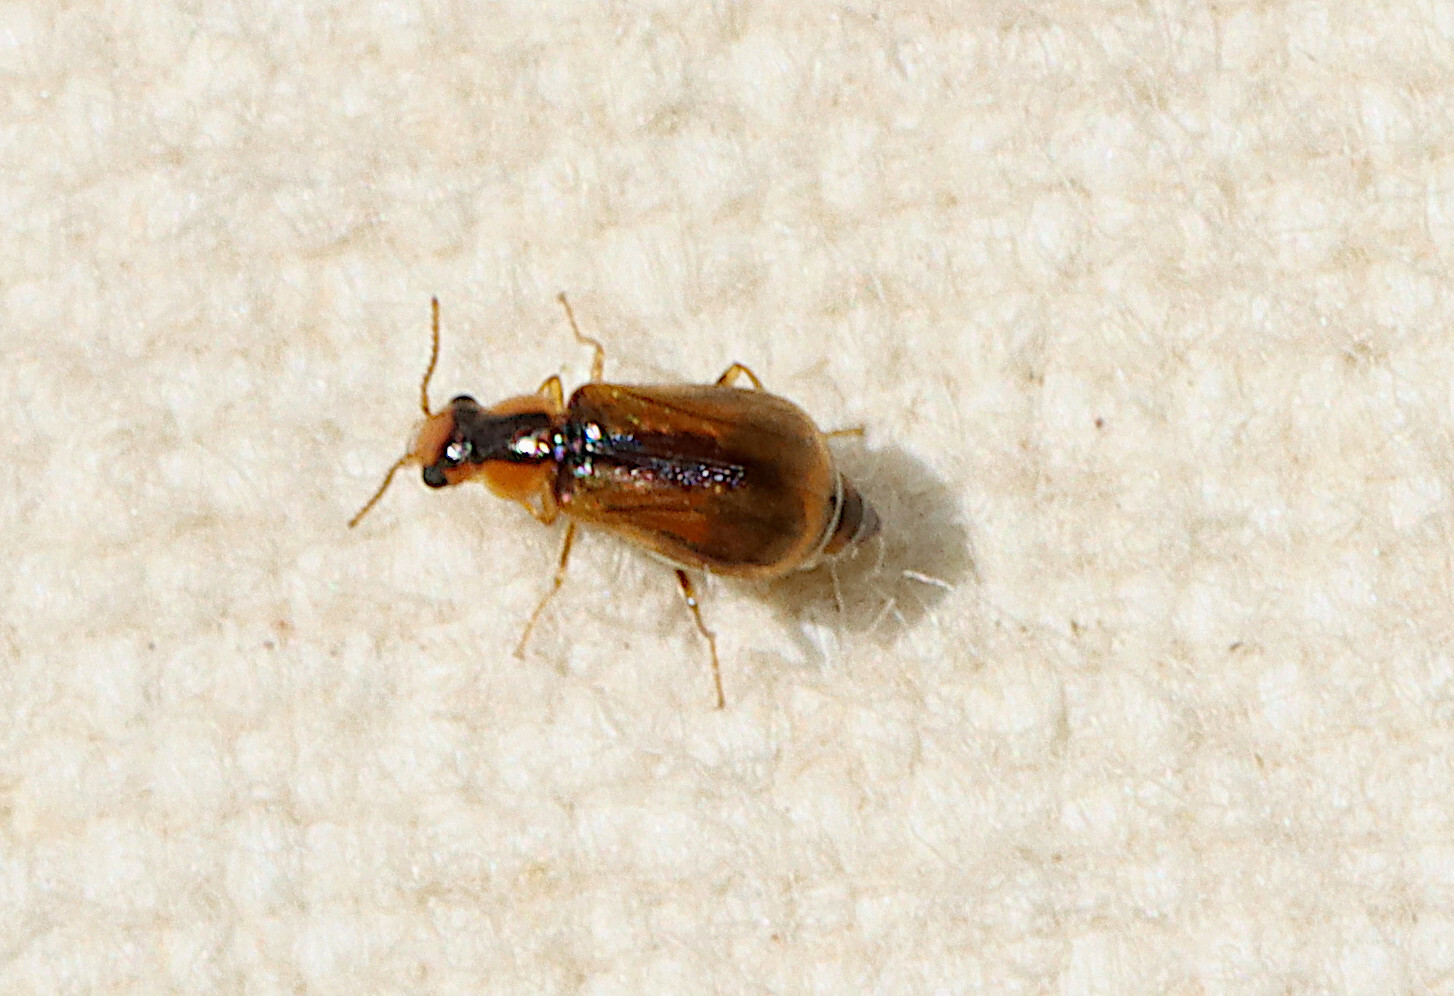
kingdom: Animalia
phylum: Arthropoda
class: Insecta
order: Coleoptera
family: Malachiidae
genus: Attalus
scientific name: Attalus
